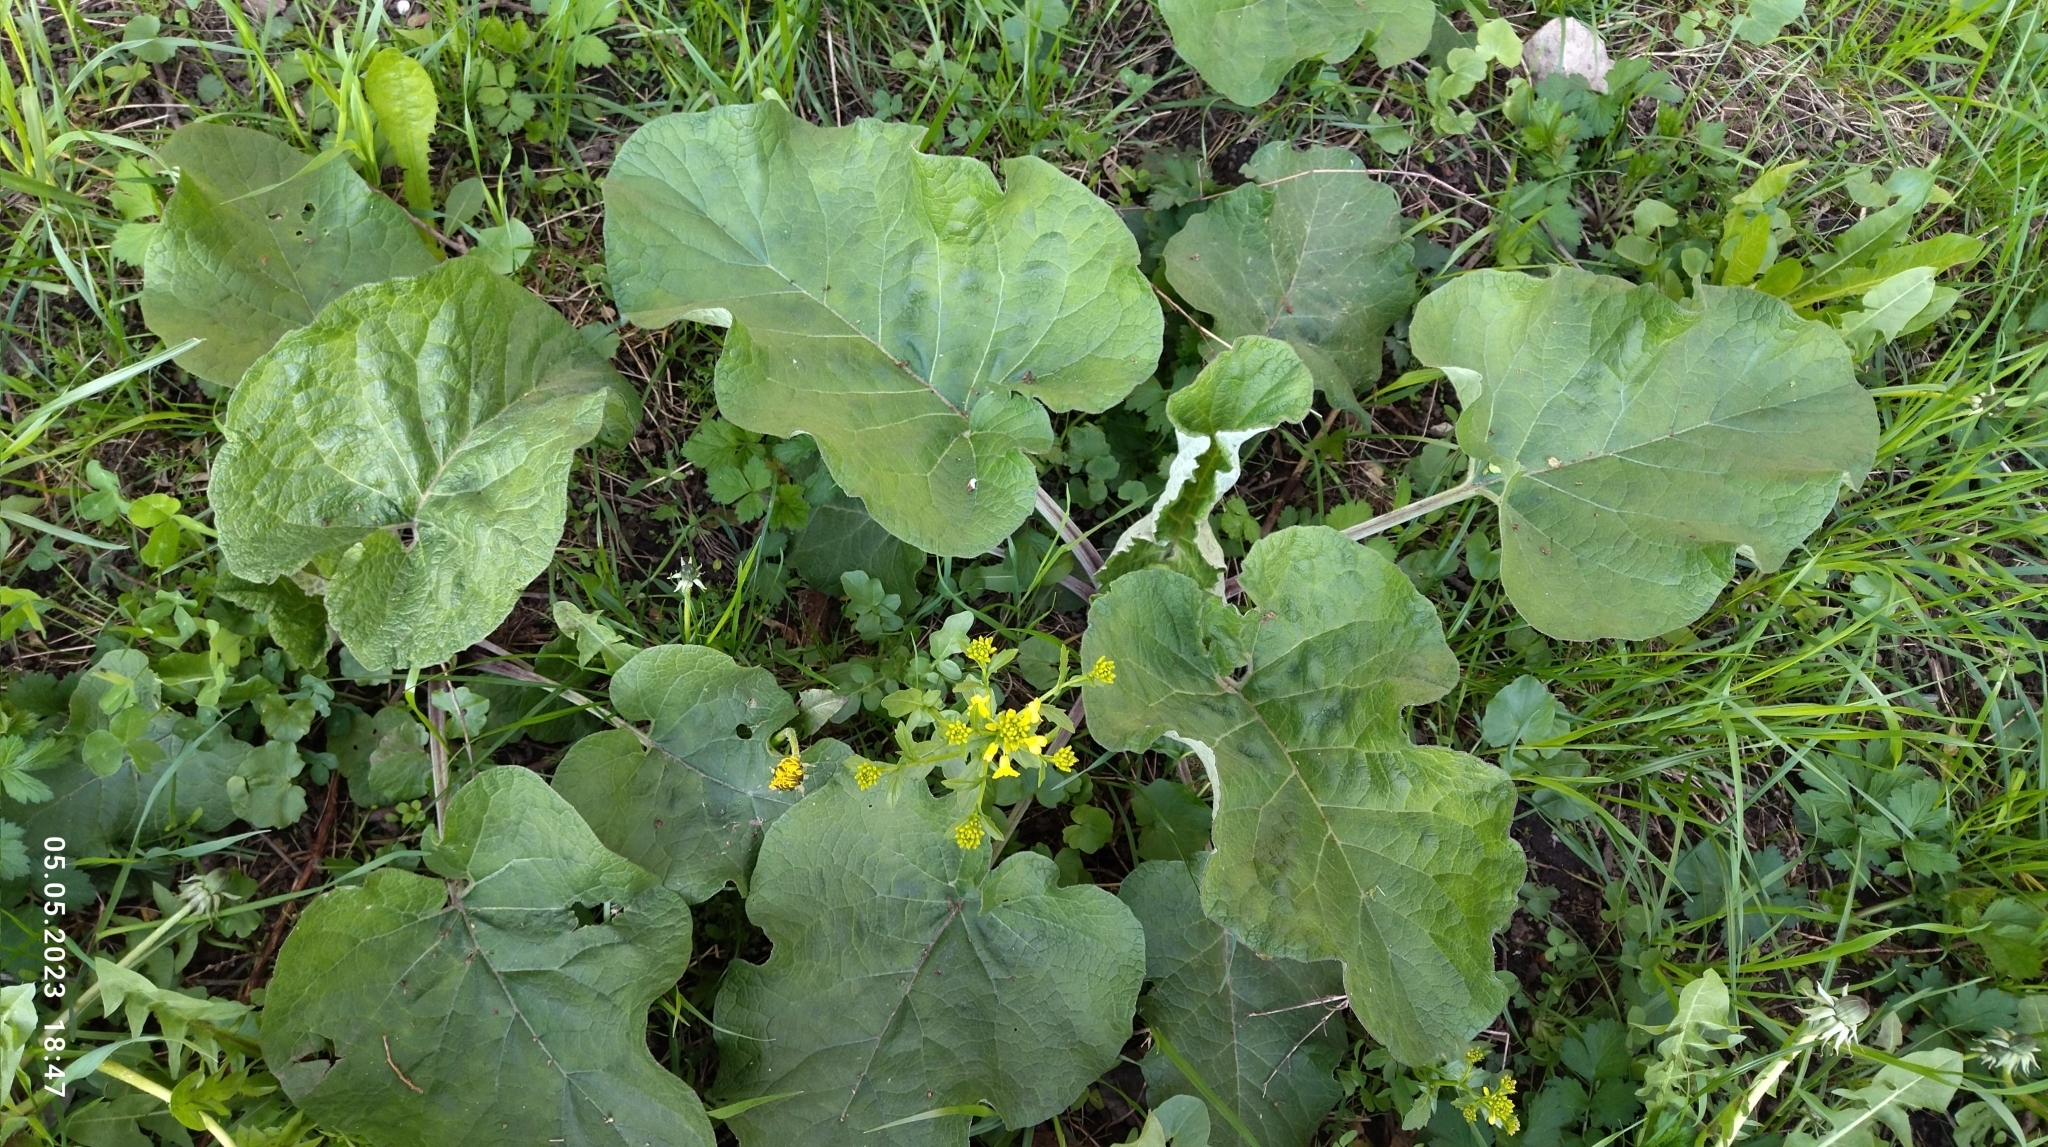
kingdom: Plantae
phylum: Tracheophyta
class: Magnoliopsida
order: Asterales
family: Asteraceae
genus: Arctium
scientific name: Arctium tomentosum
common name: Woolly burdock
